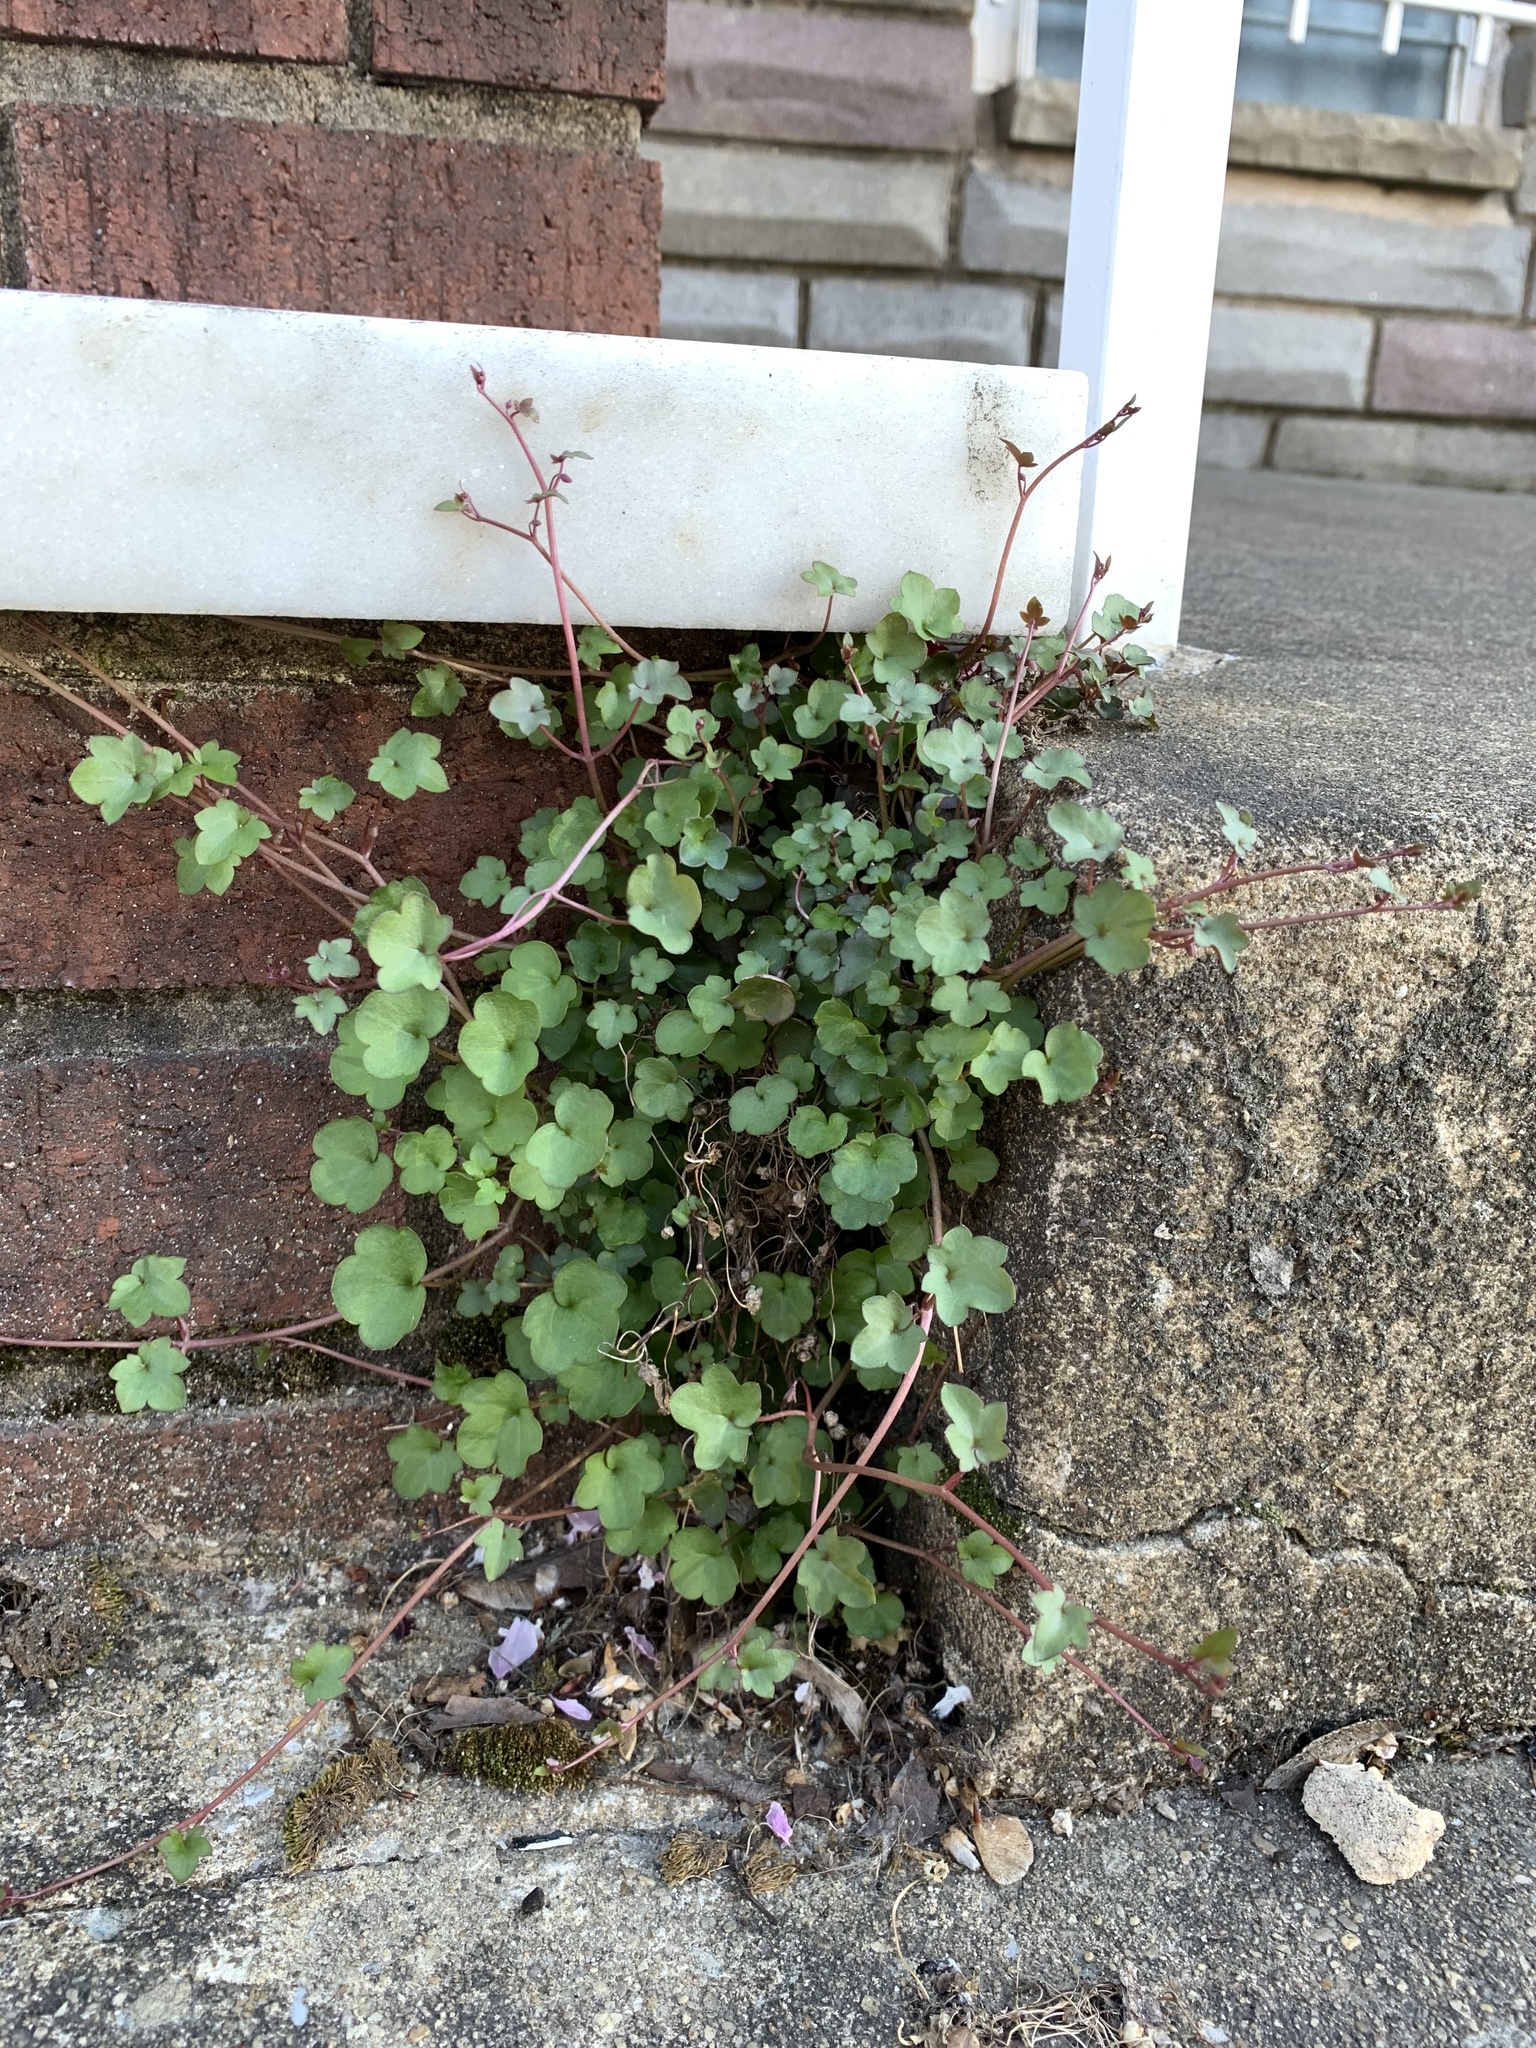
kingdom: Plantae
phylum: Tracheophyta
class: Magnoliopsida
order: Lamiales
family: Plantaginaceae
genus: Cymbalaria
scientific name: Cymbalaria muralis
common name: Ivy-leaved toadflax
